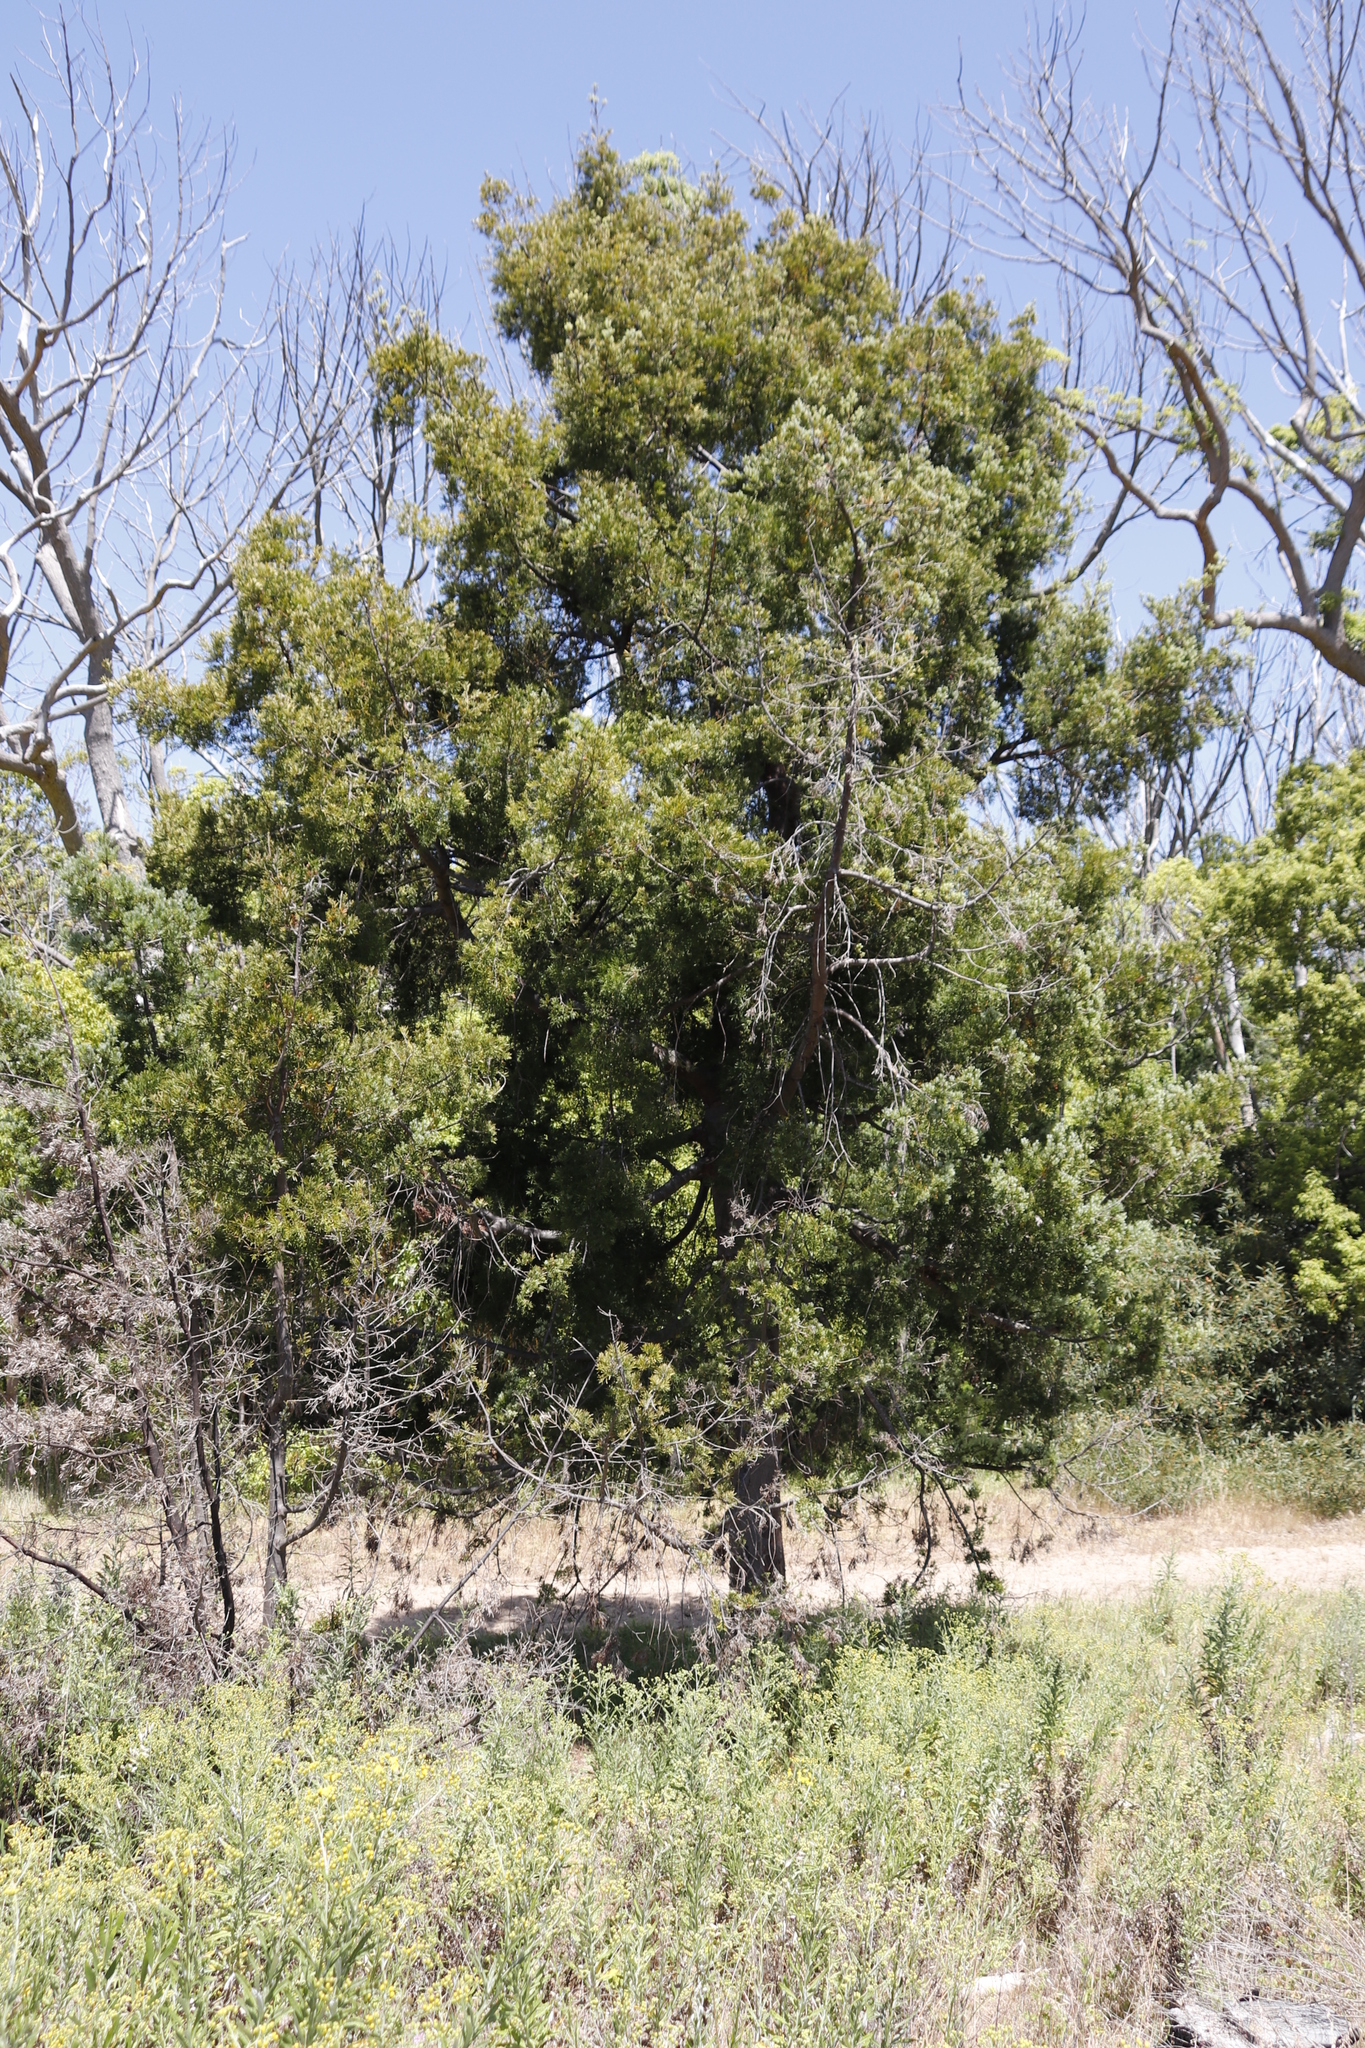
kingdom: Plantae
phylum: Tracheophyta
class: Pinopsida
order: Pinales
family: Podocarpaceae
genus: Afrocarpus
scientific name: Afrocarpus falcatus
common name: Bastard yellowwood
